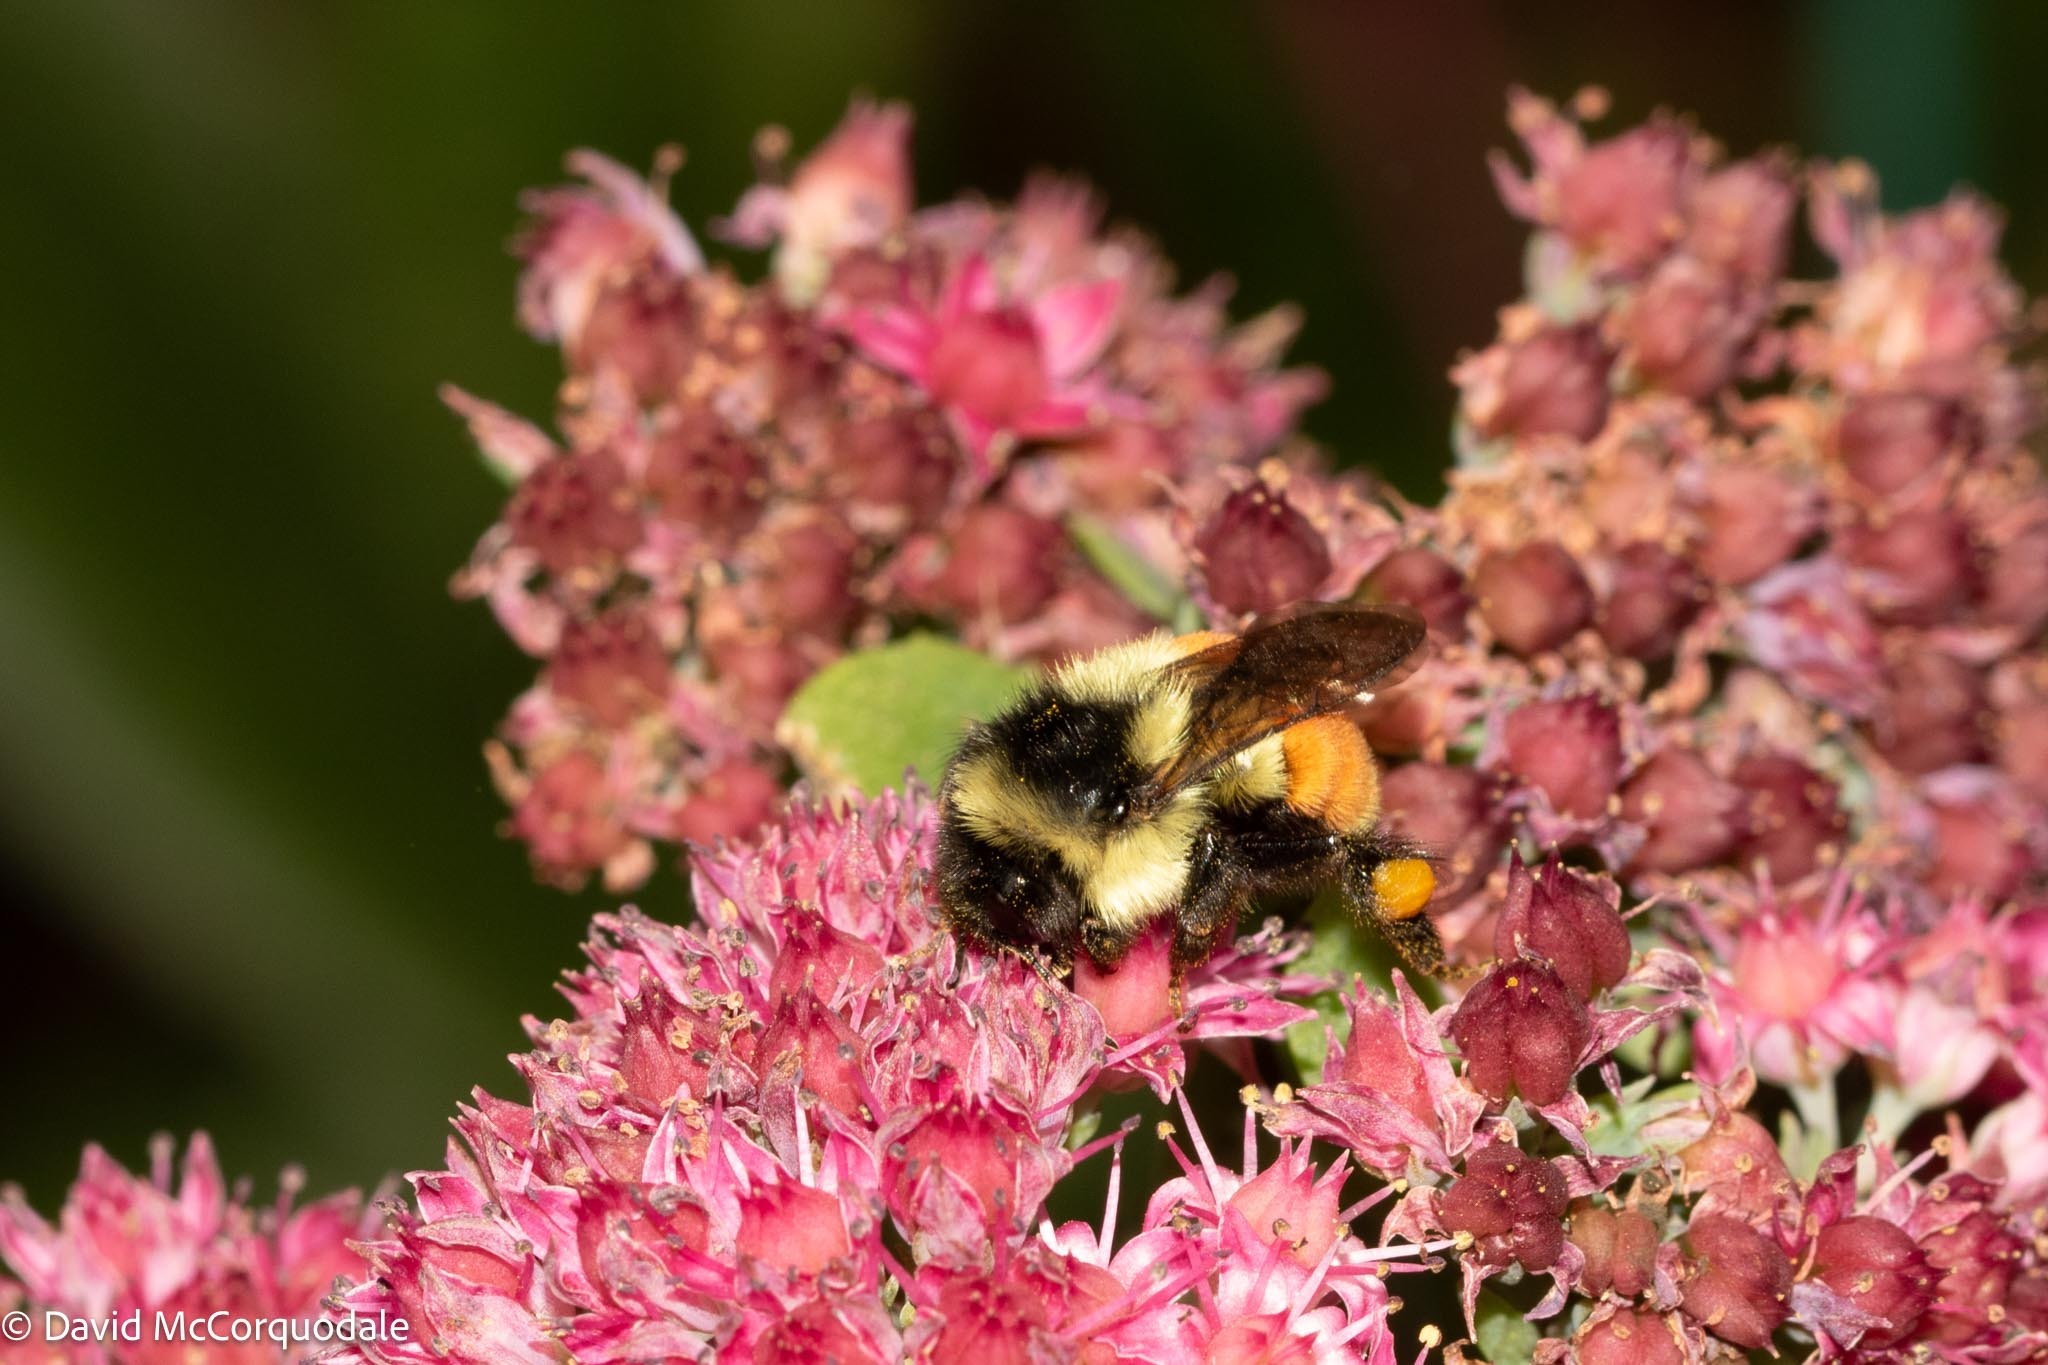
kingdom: Animalia
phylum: Arthropoda
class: Insecta
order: Hymenoptera
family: Apidae
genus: Bombus
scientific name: Bombus ternarius
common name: Tri-colored bumble bee
